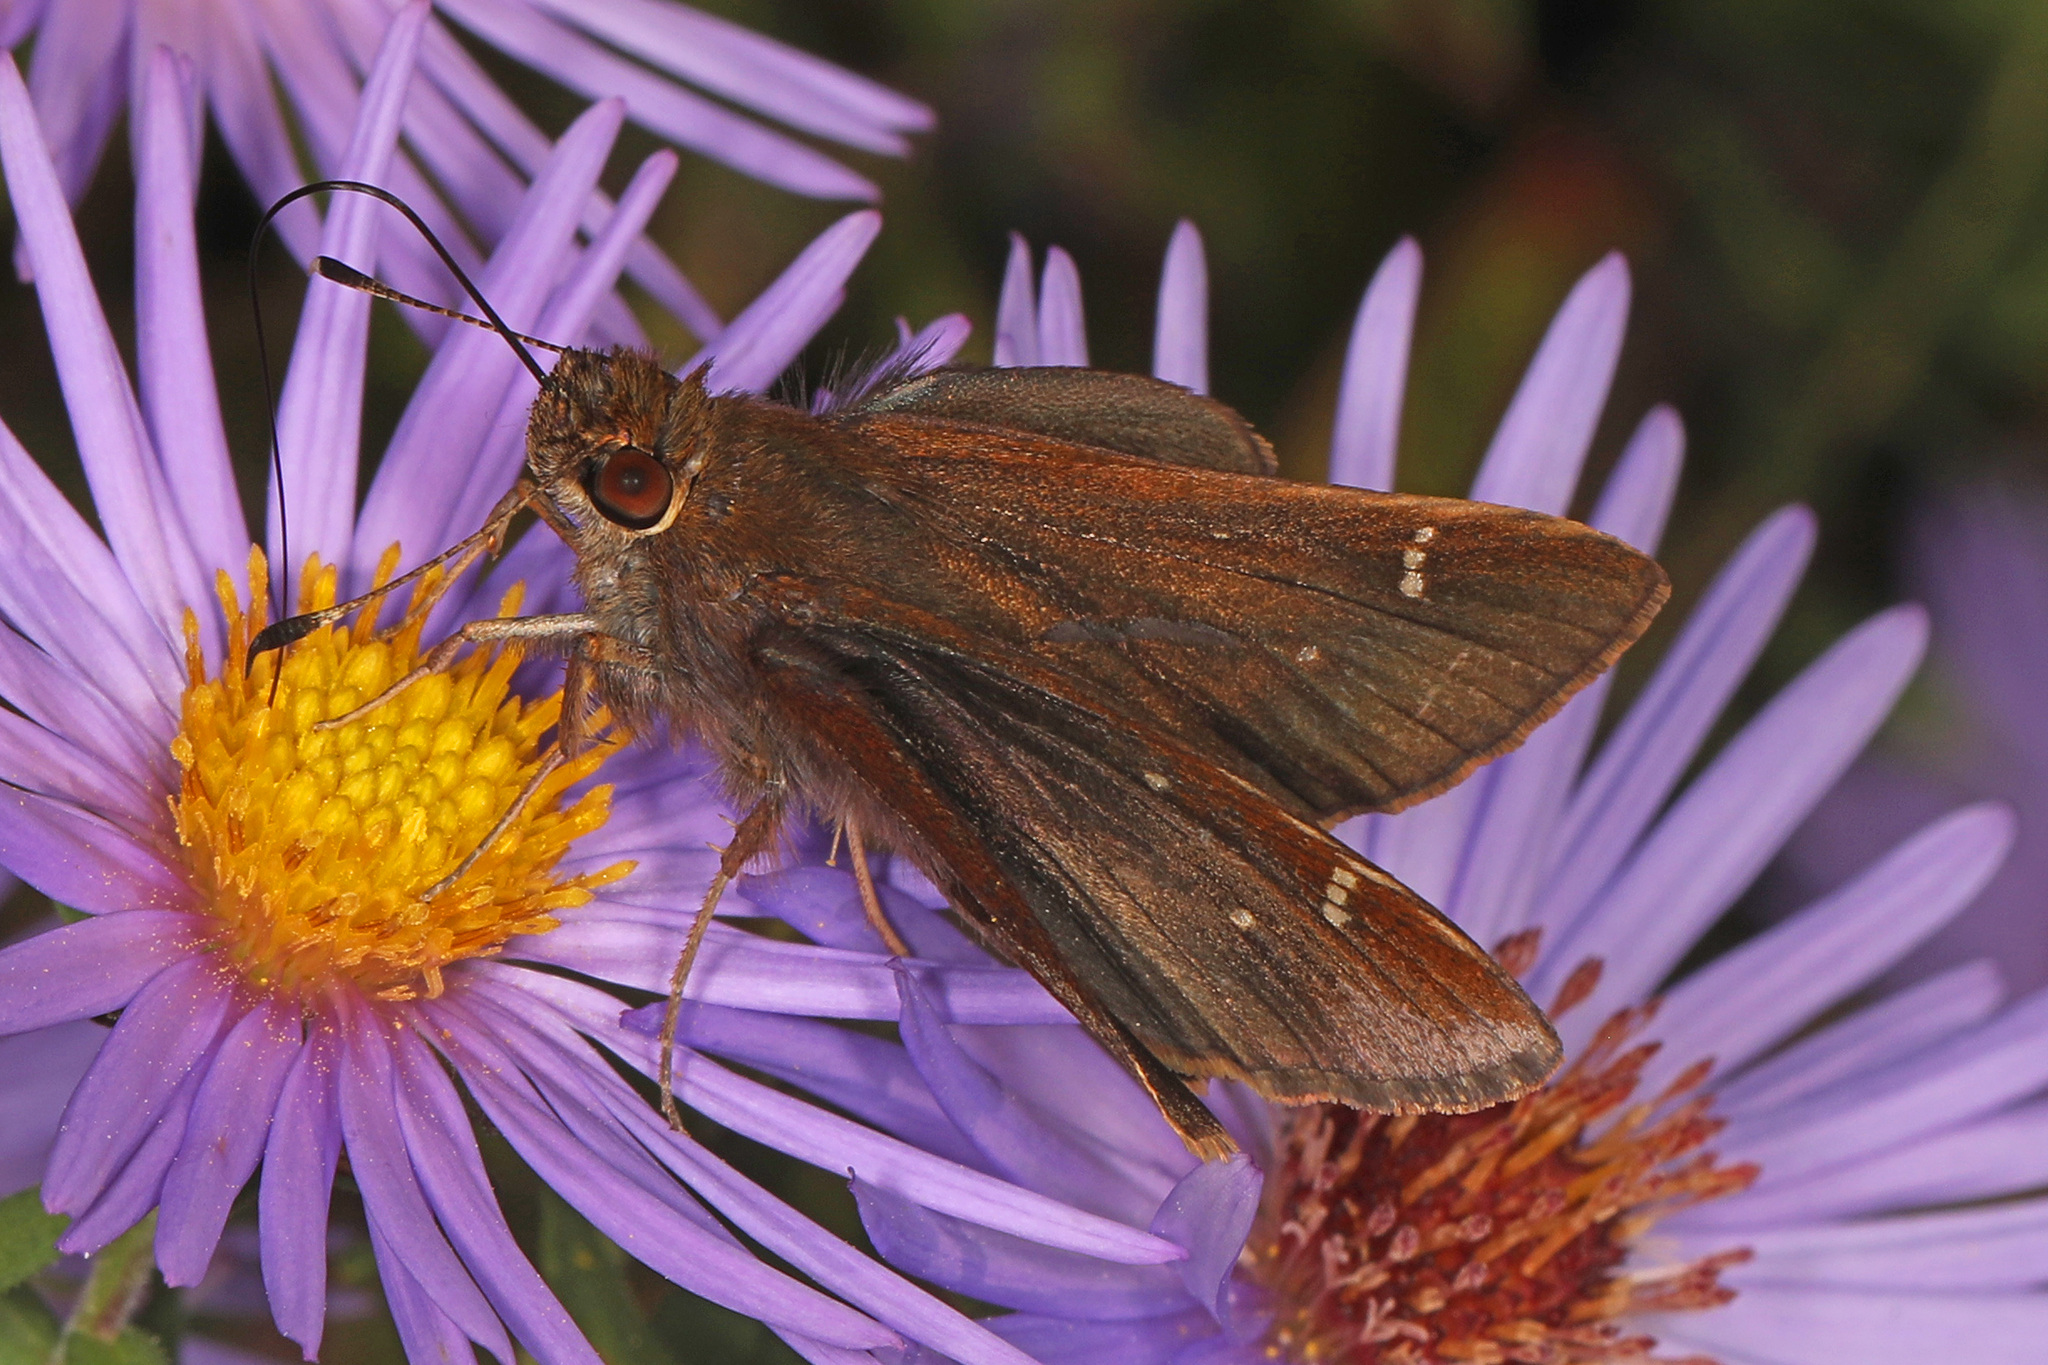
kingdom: Animalia
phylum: Arthropoda
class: Insecta
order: Lepidoptera
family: Hesperiidae
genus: Lerema
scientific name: Lerema accius
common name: Clouded skipper
